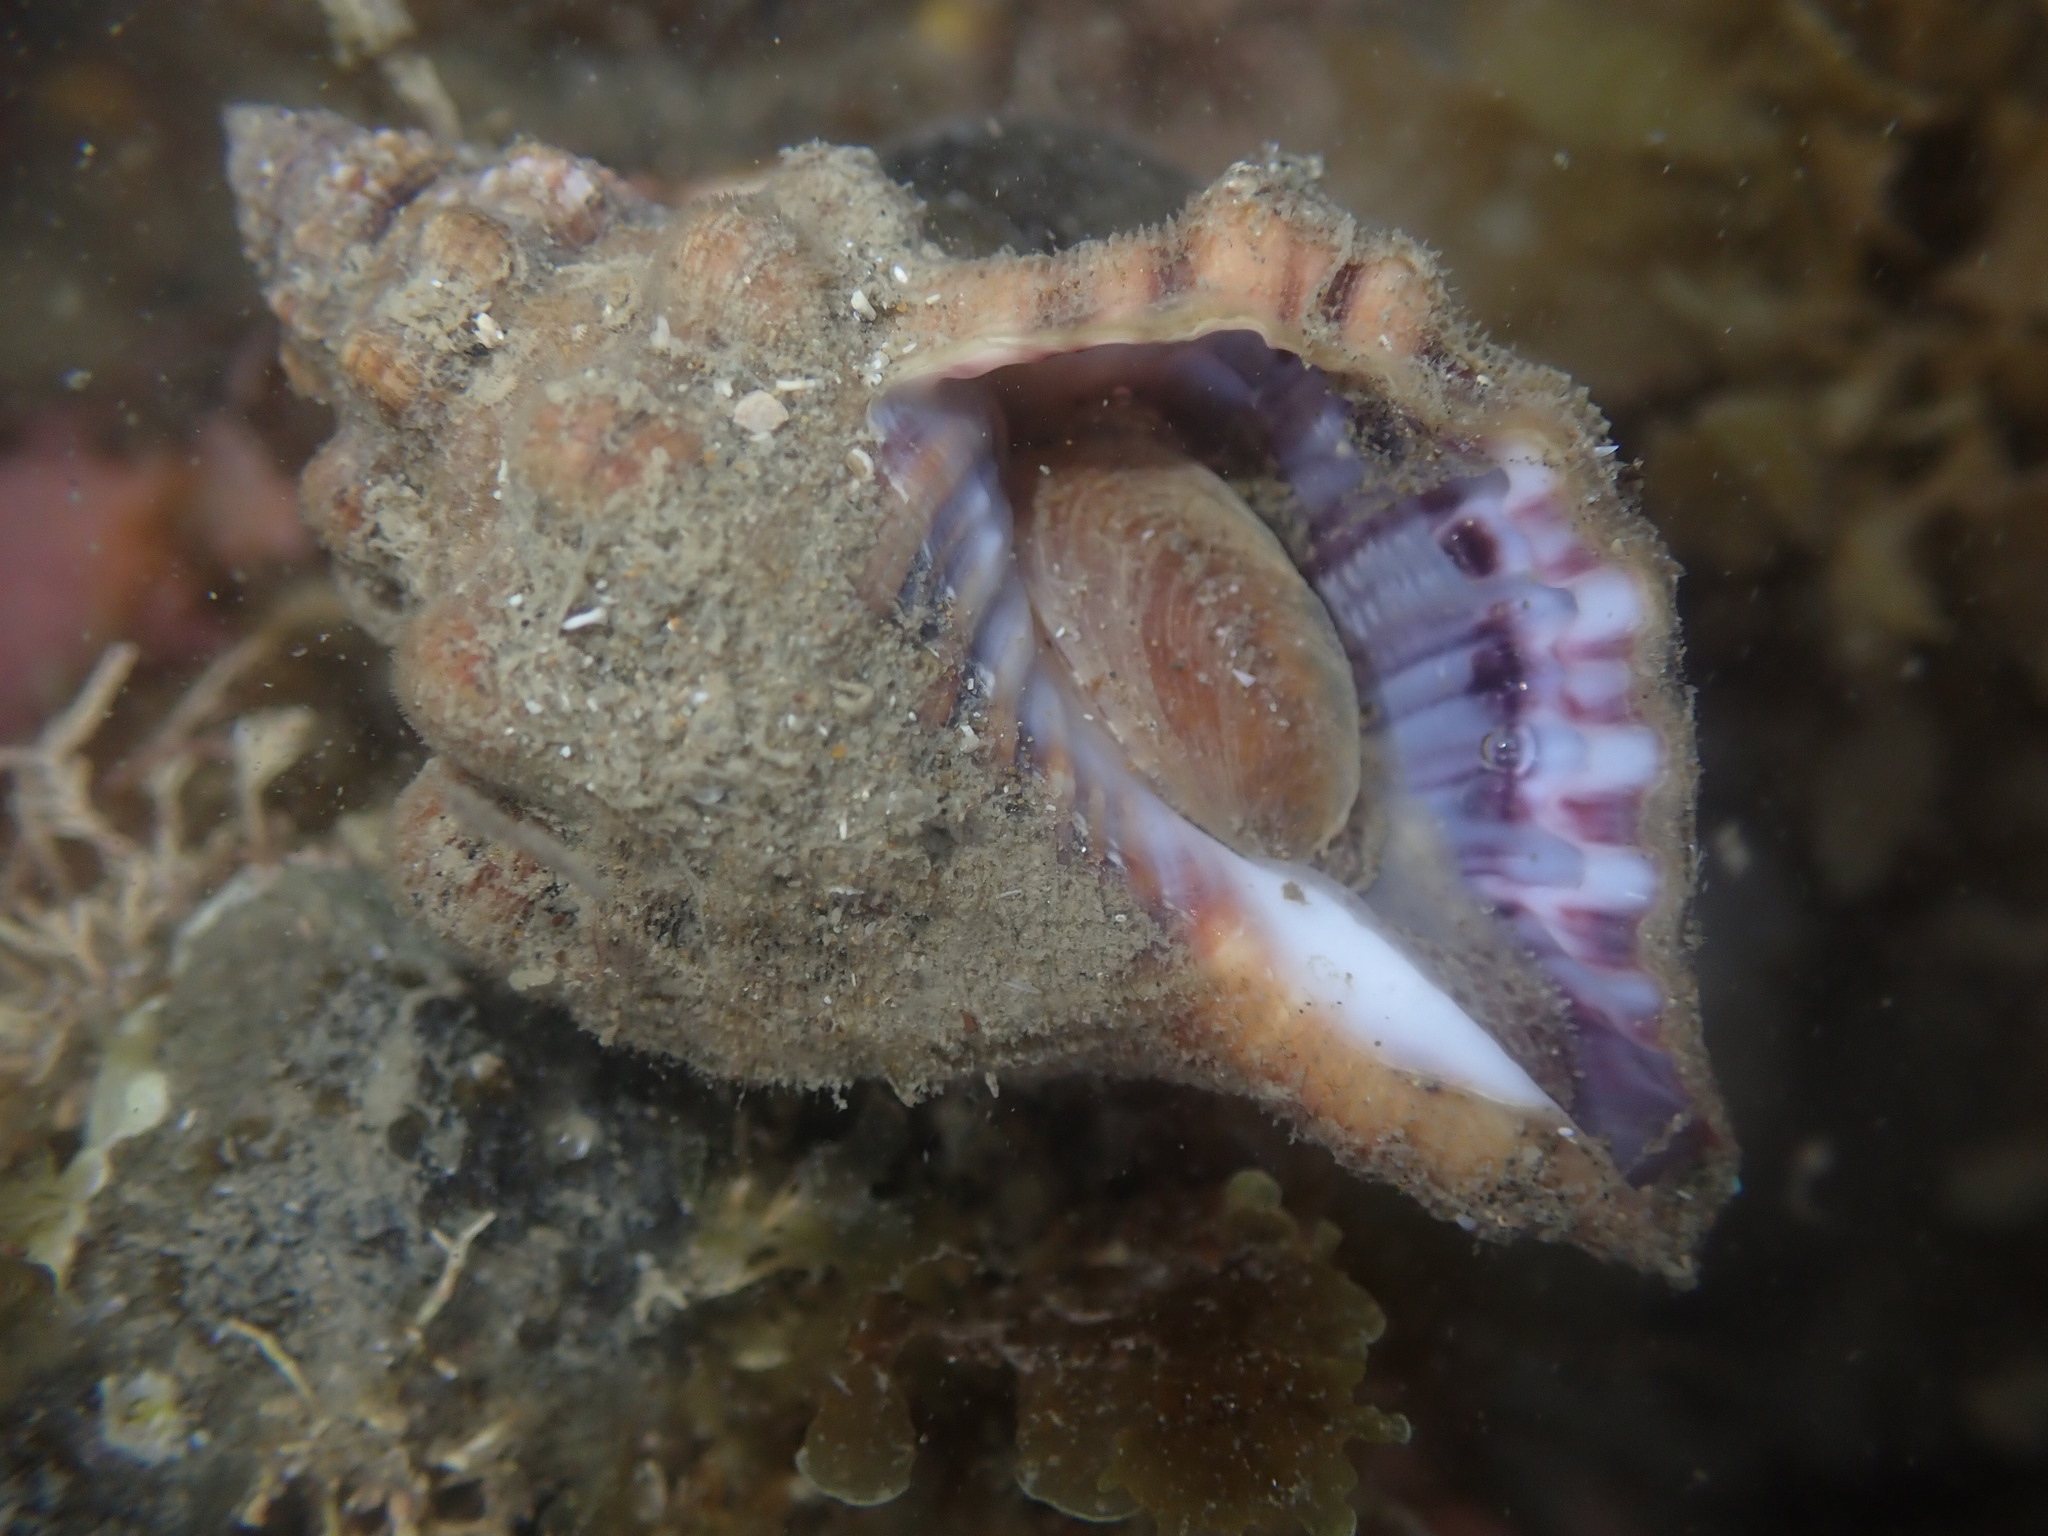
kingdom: Animalia
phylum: Mollusca
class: Gastropoda
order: Littorinimorpha
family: Cymatiidae
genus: Cabestana
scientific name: Cabestana spengleri
